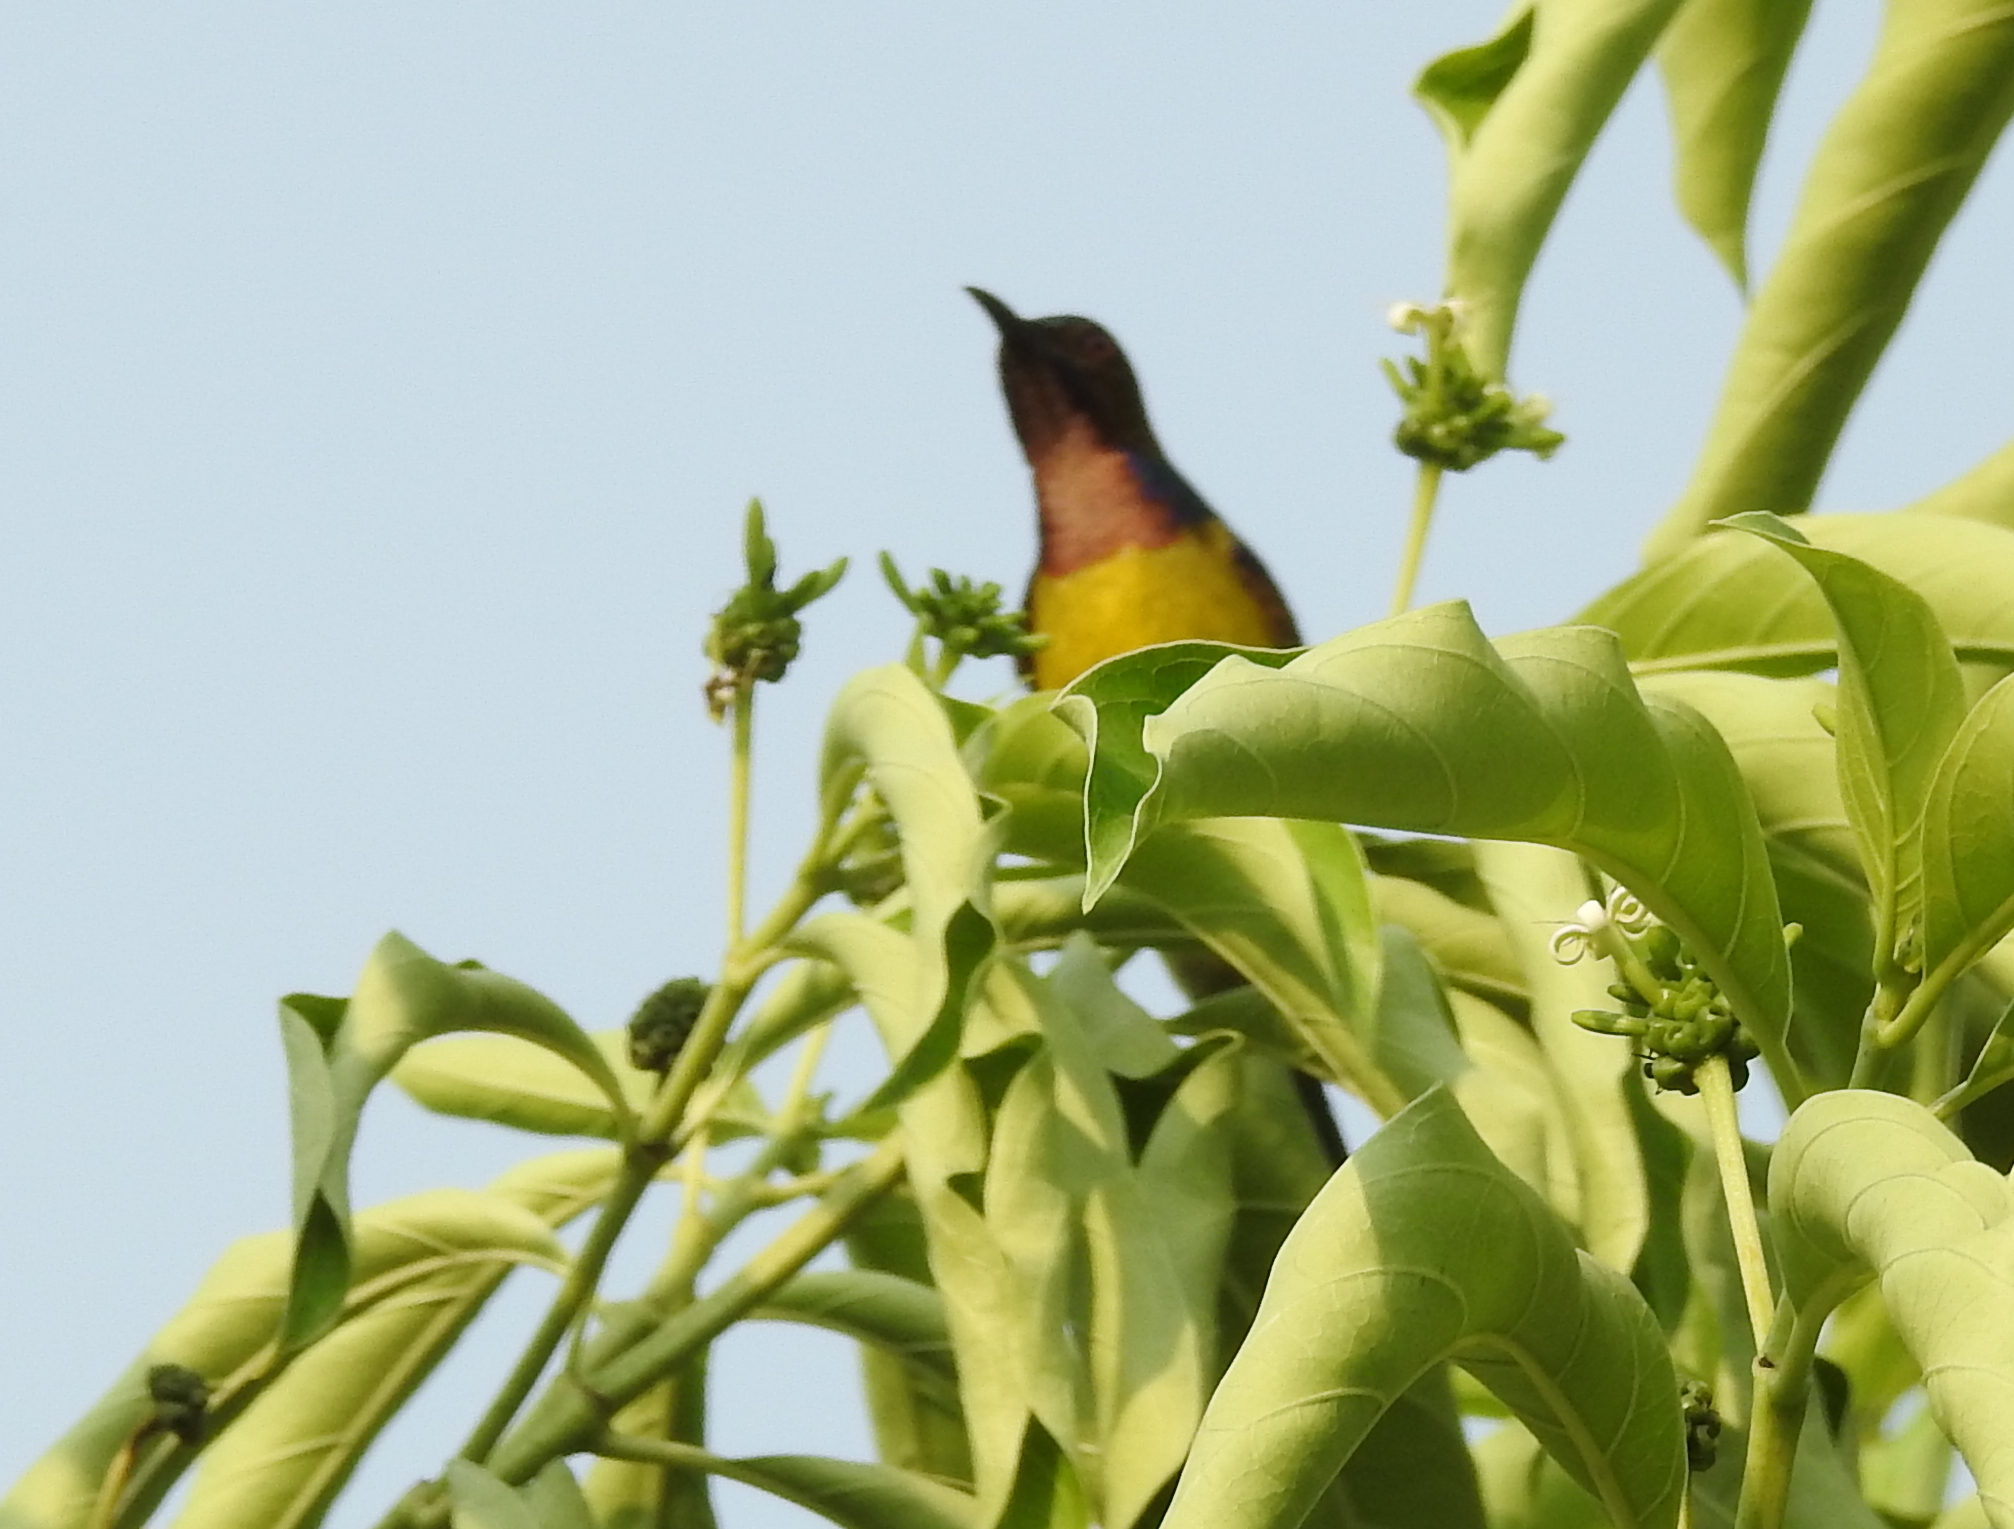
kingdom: Animalia
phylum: Chordata
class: Aves
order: Passeriformes
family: Nectariniidae
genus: Anthreptes
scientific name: Anthreptes malacensis
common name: Brown-throated sunbird
